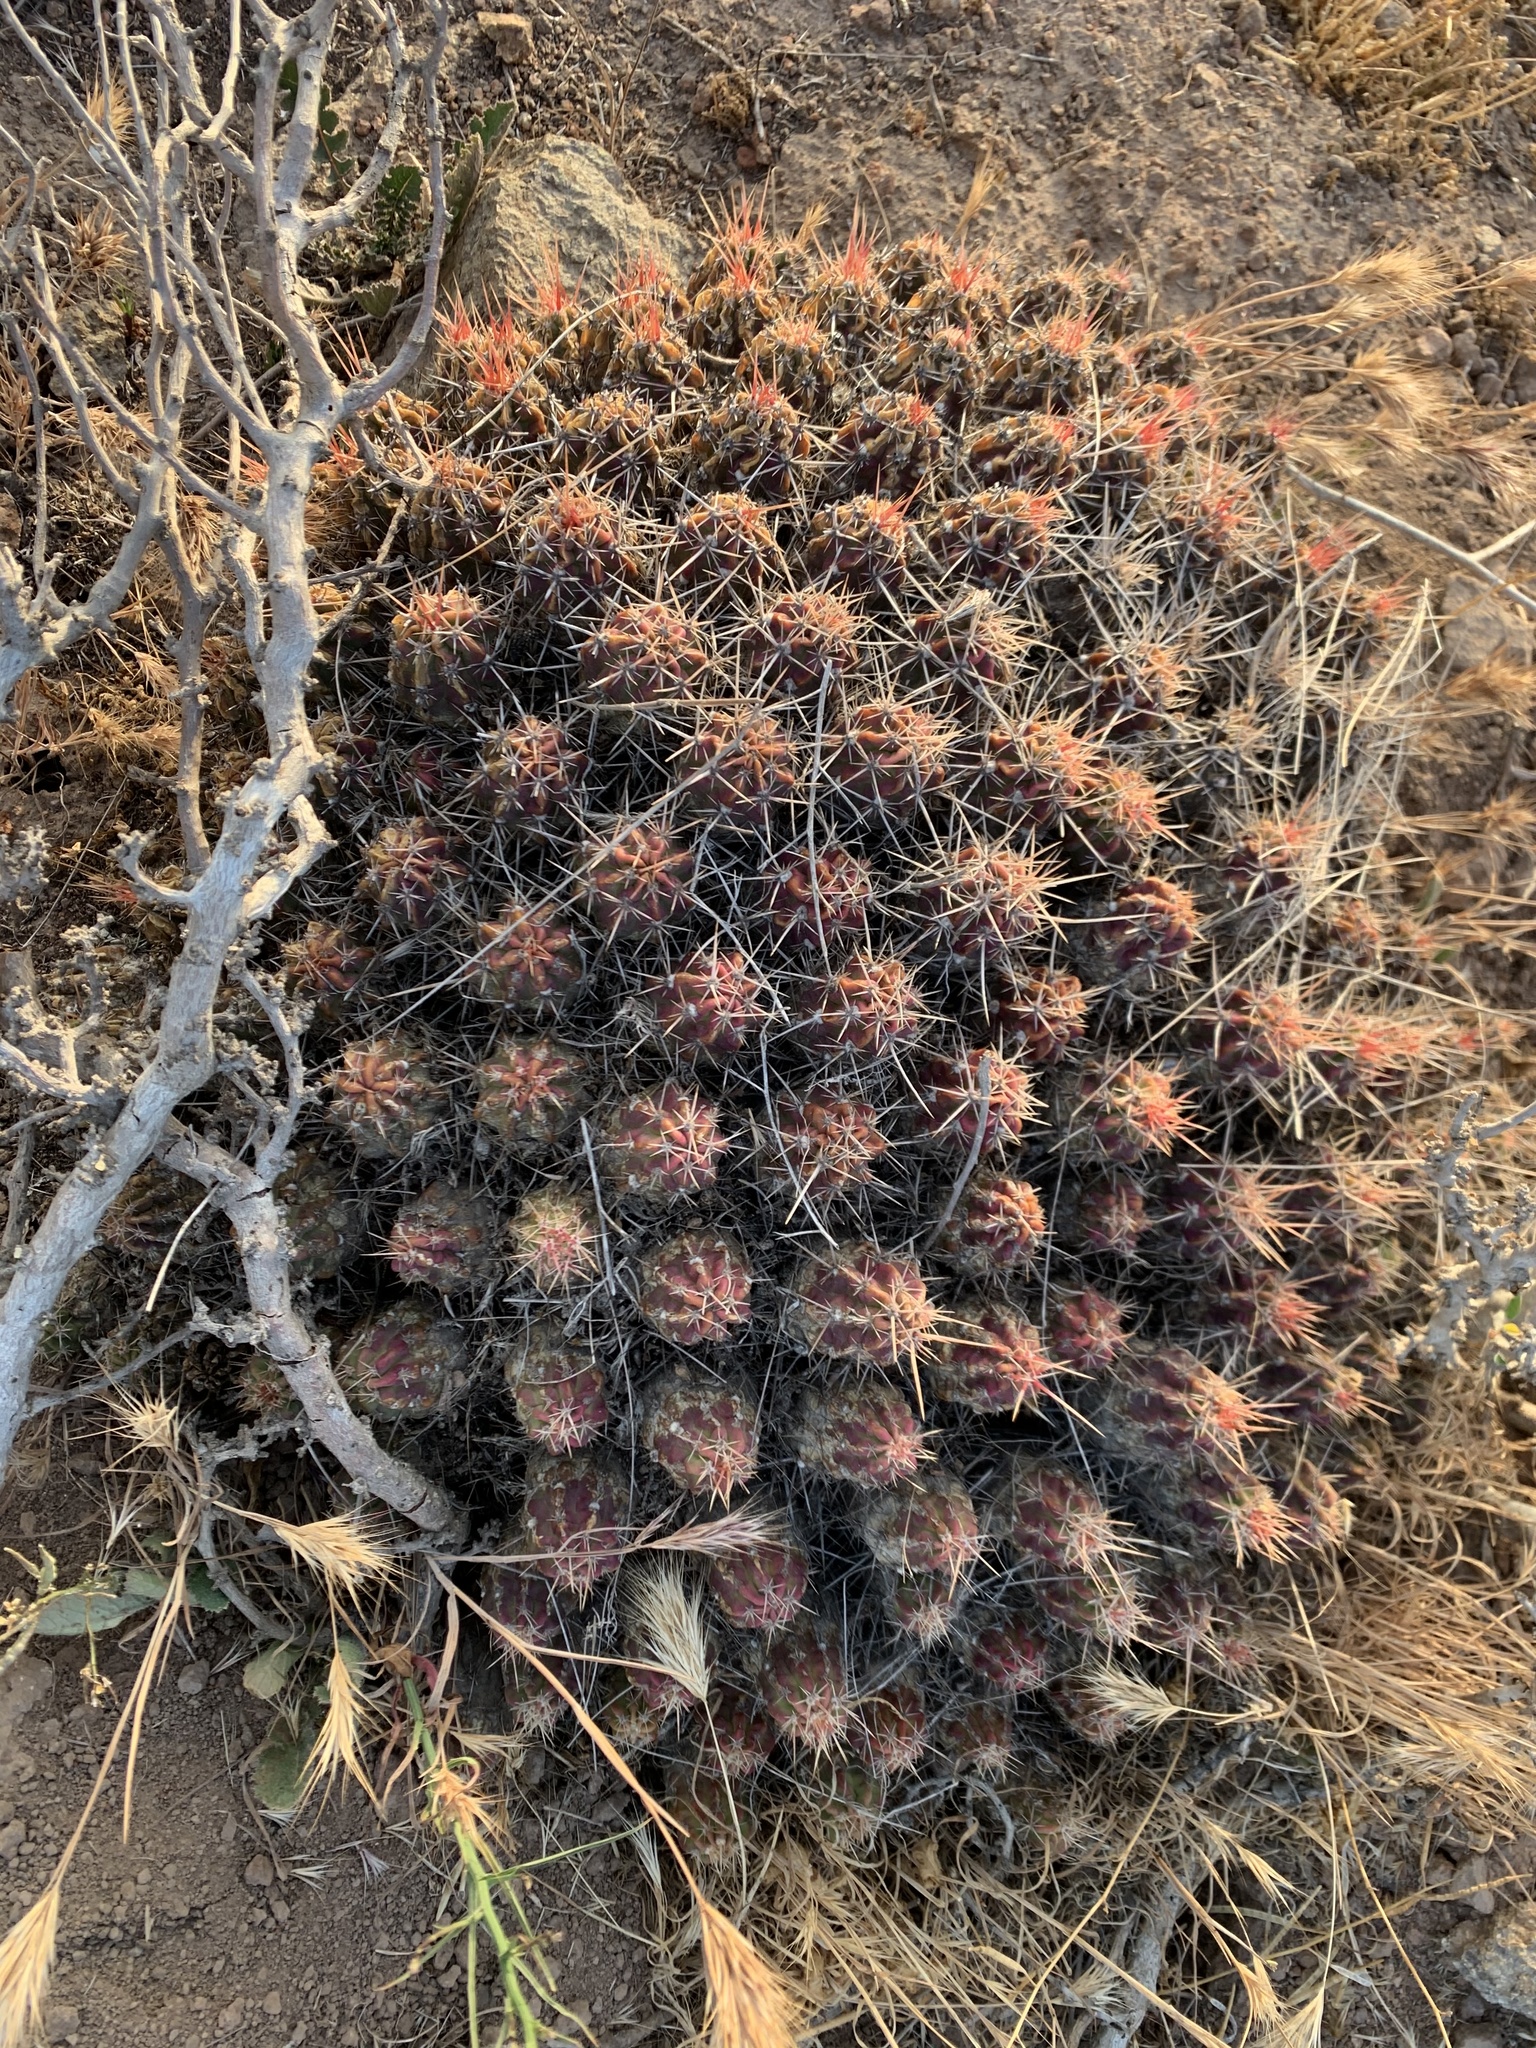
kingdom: Plantae
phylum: Tracheophyta
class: Magnoliopsida
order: Caryophyllales
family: Cactaceae
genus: Echinocereus
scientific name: Echinocereus maritimus
